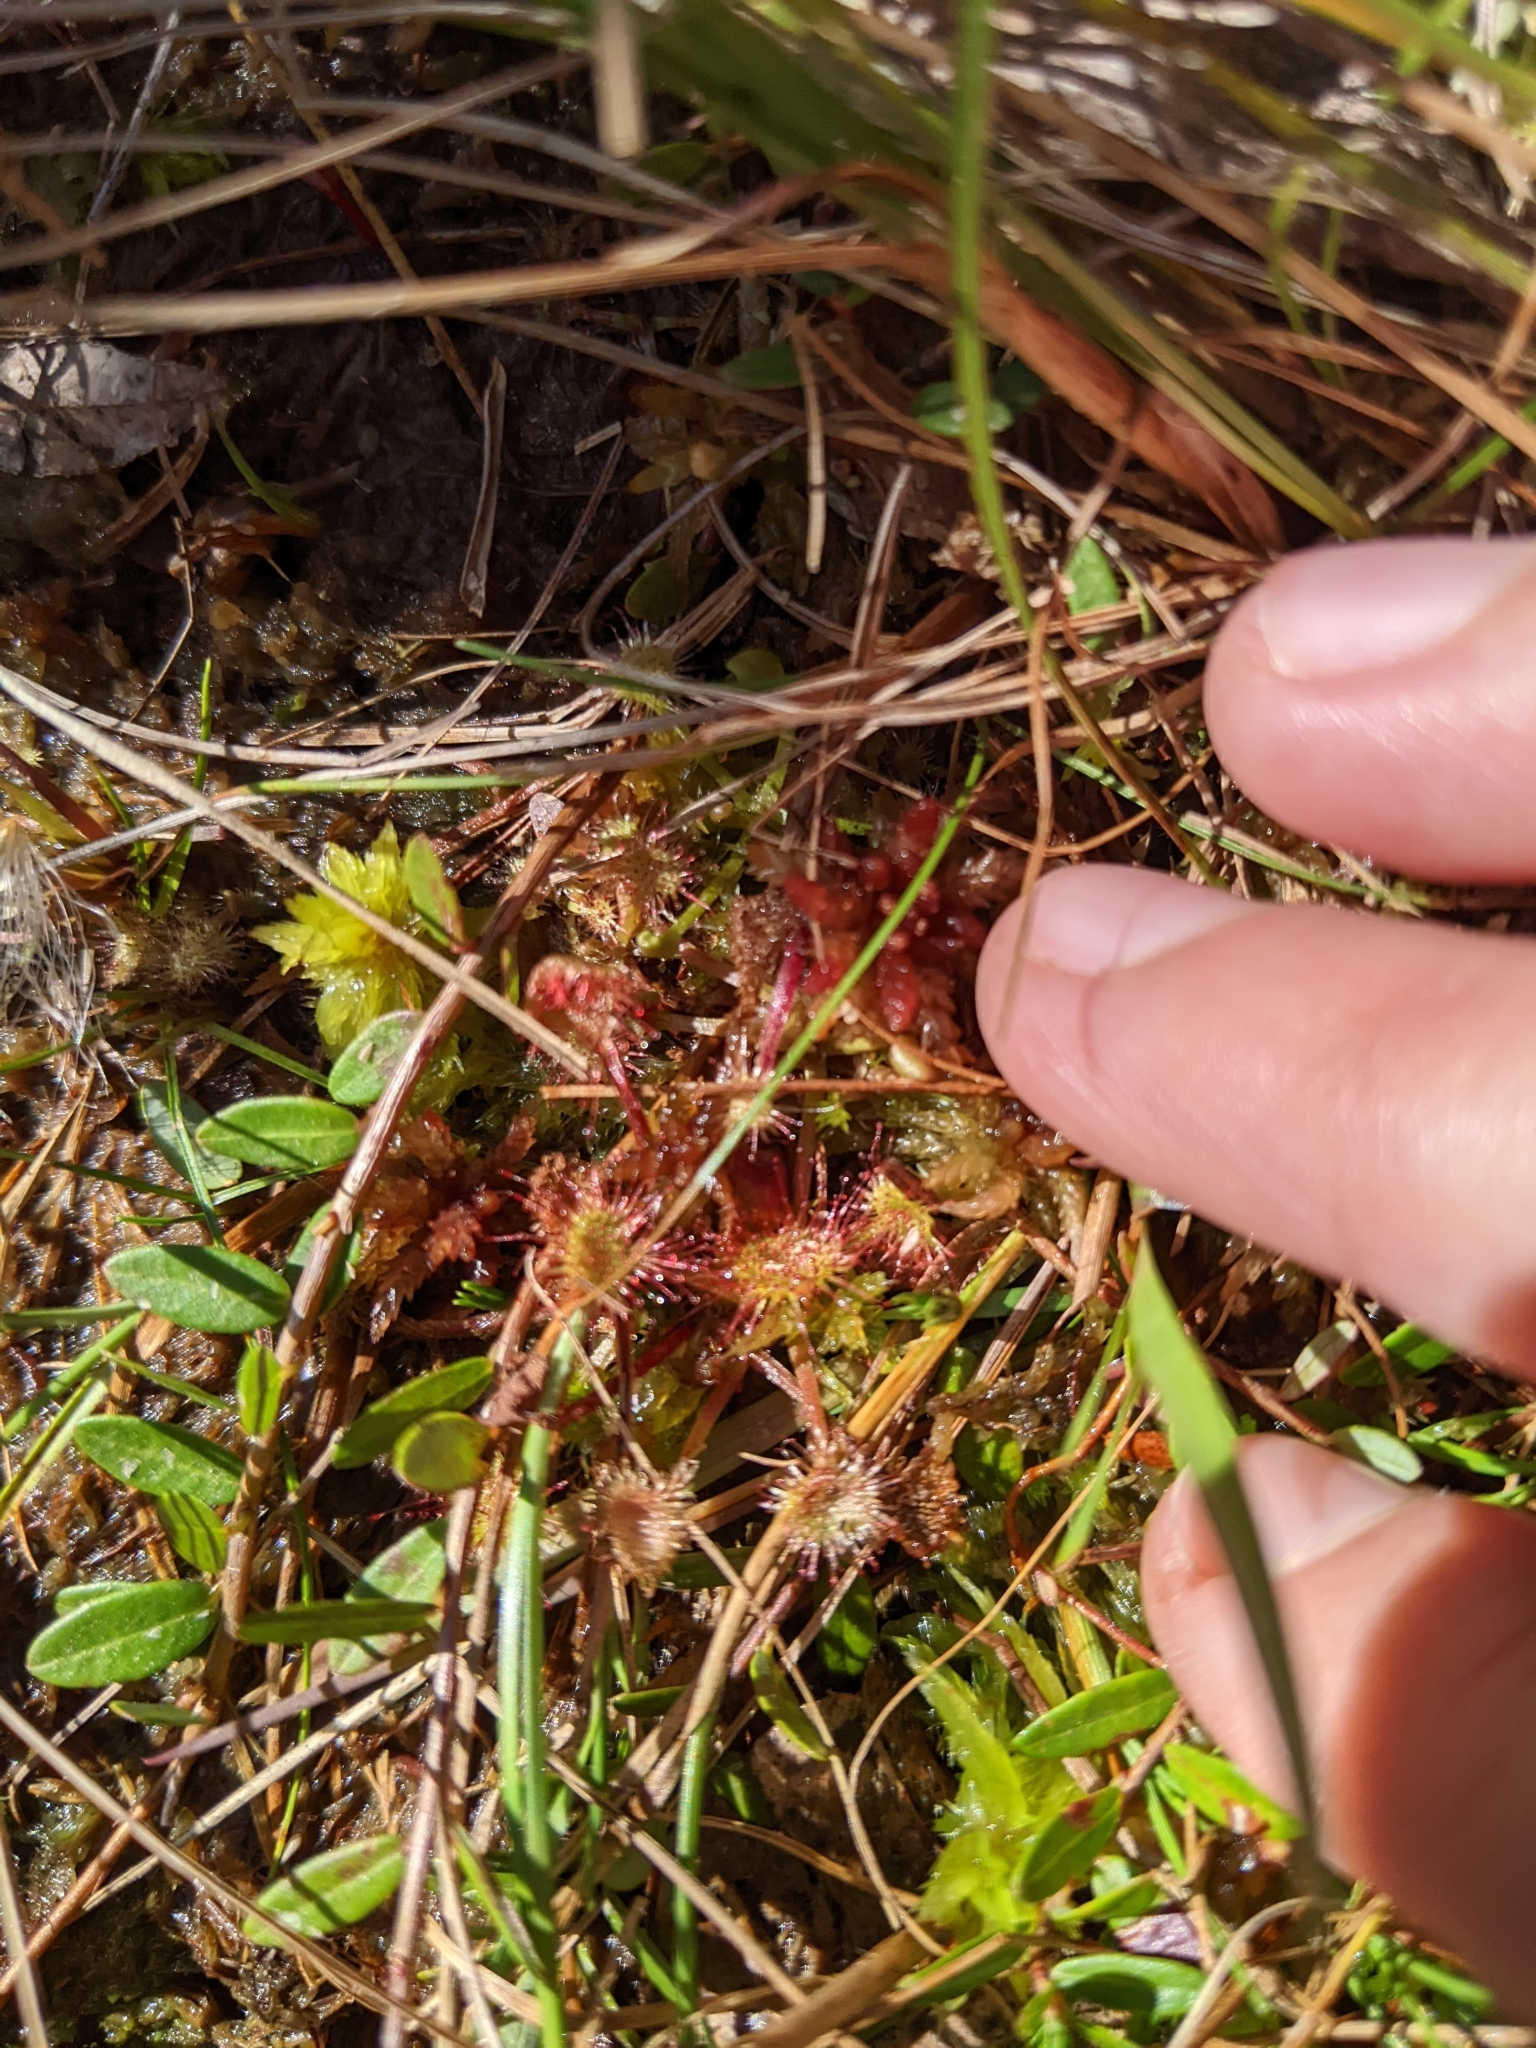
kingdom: Plantae
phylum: Tracheophyta
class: Magnoliopsida
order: Caryophyllales
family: Droseraceae
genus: Drosera
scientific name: Drosera rotundifolia
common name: Round-leaved sundew
